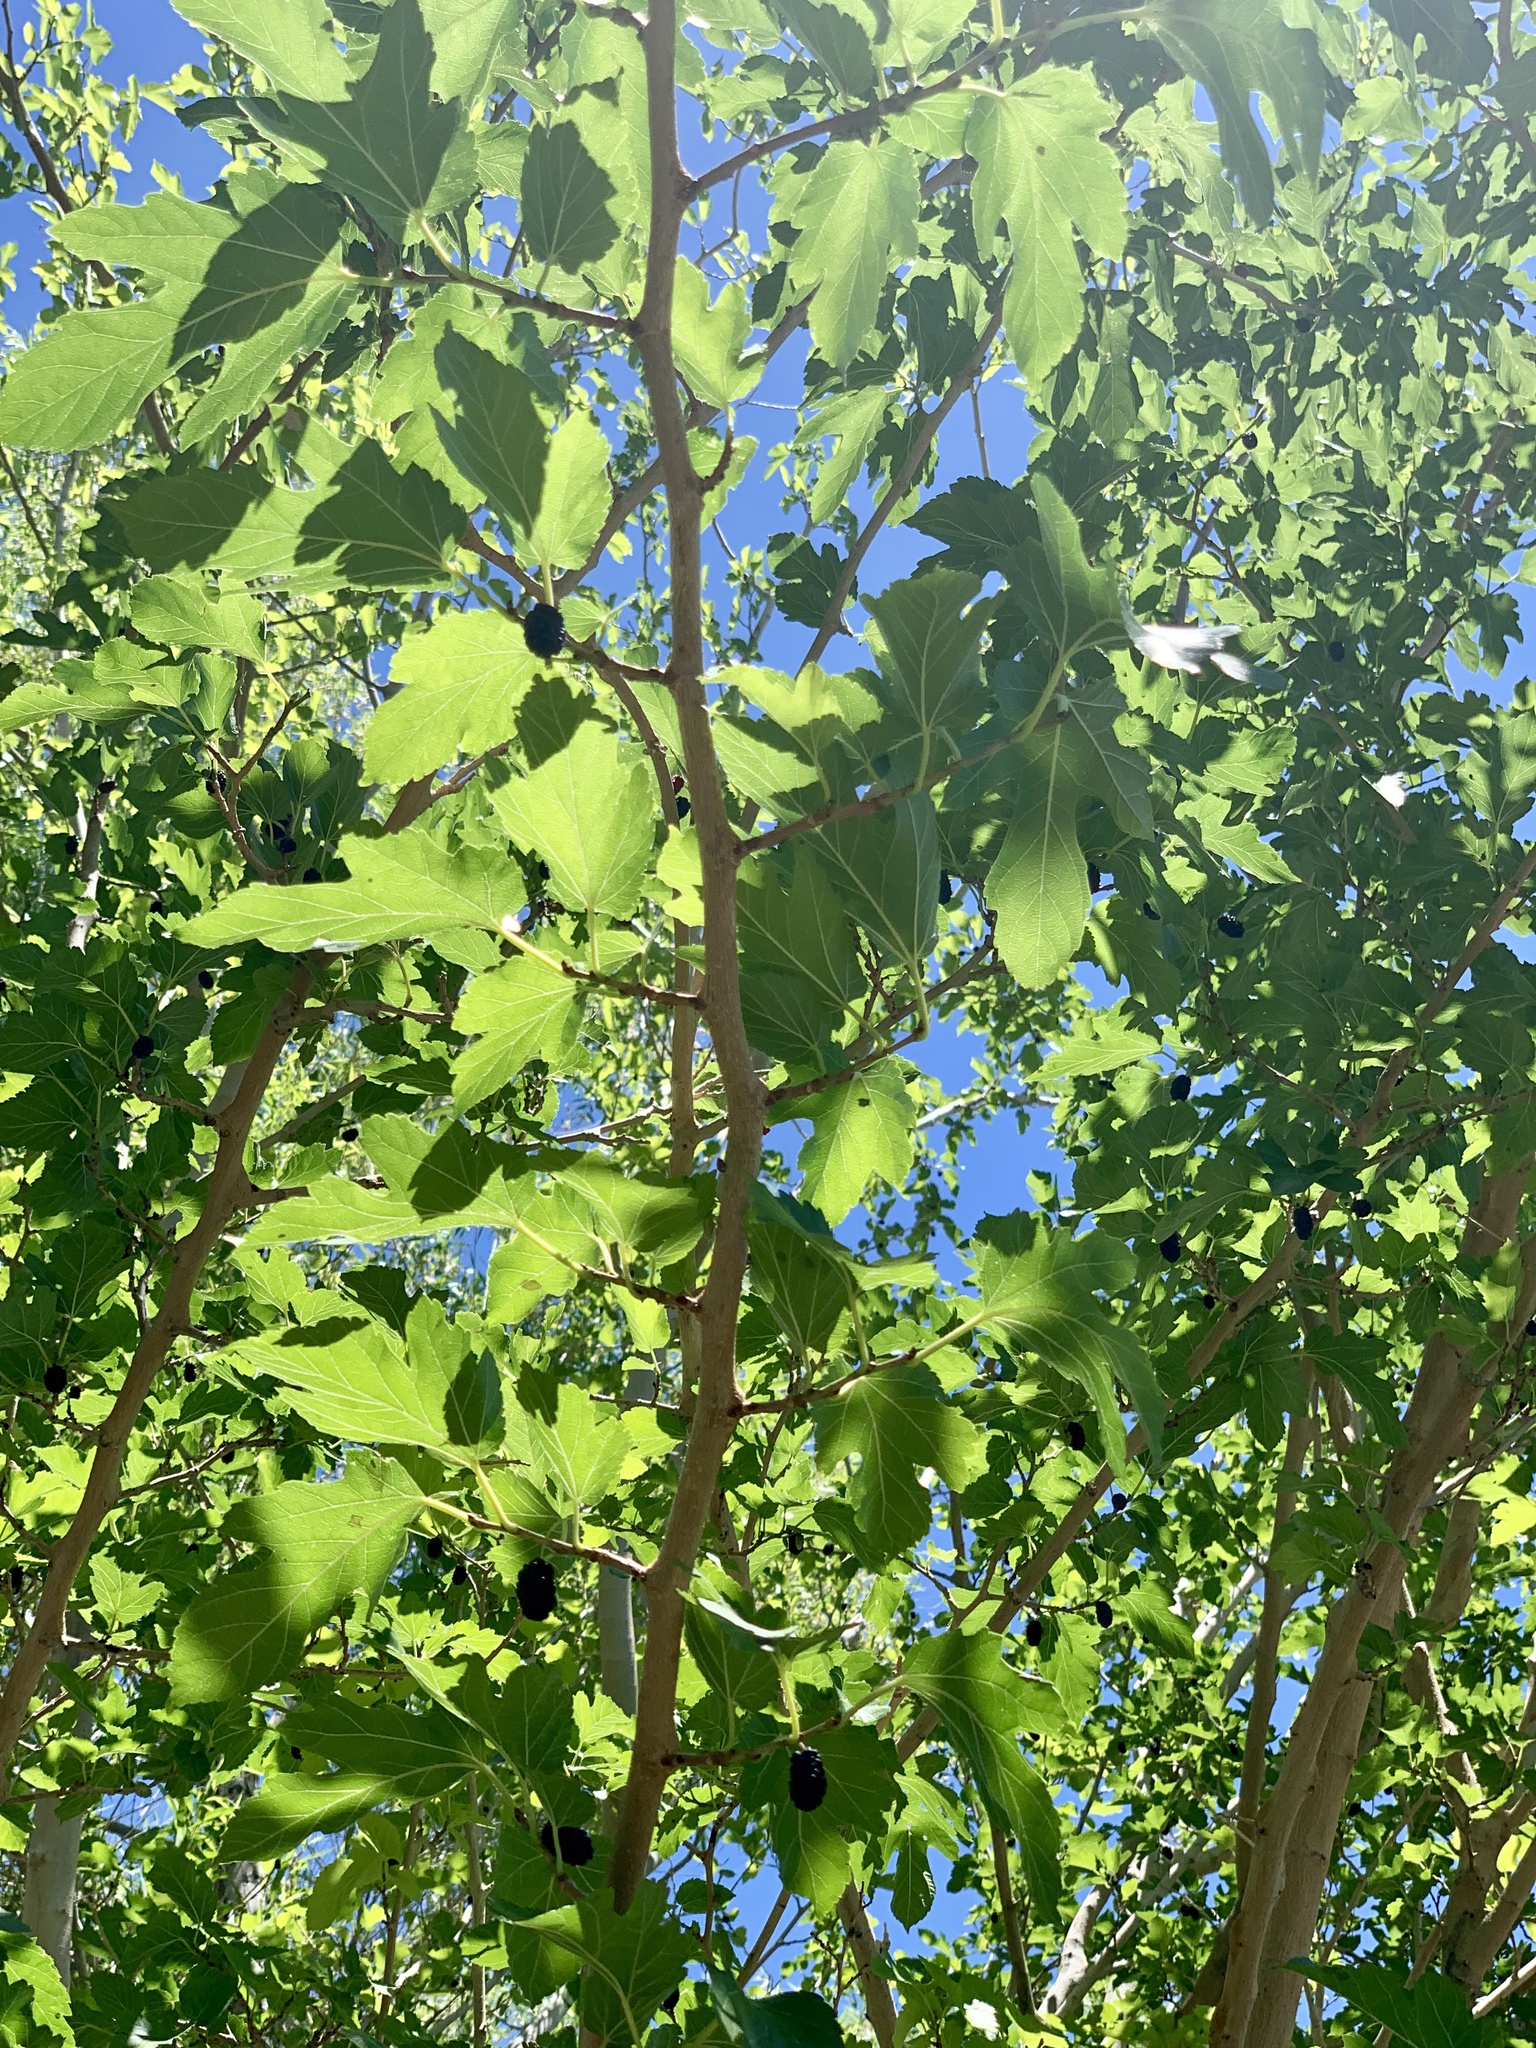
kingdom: Plantae
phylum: Tracheophyta
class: Magnoliopsida
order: Rosales
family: Moraceae
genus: Morus
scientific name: Morus alba
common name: White mulberry
